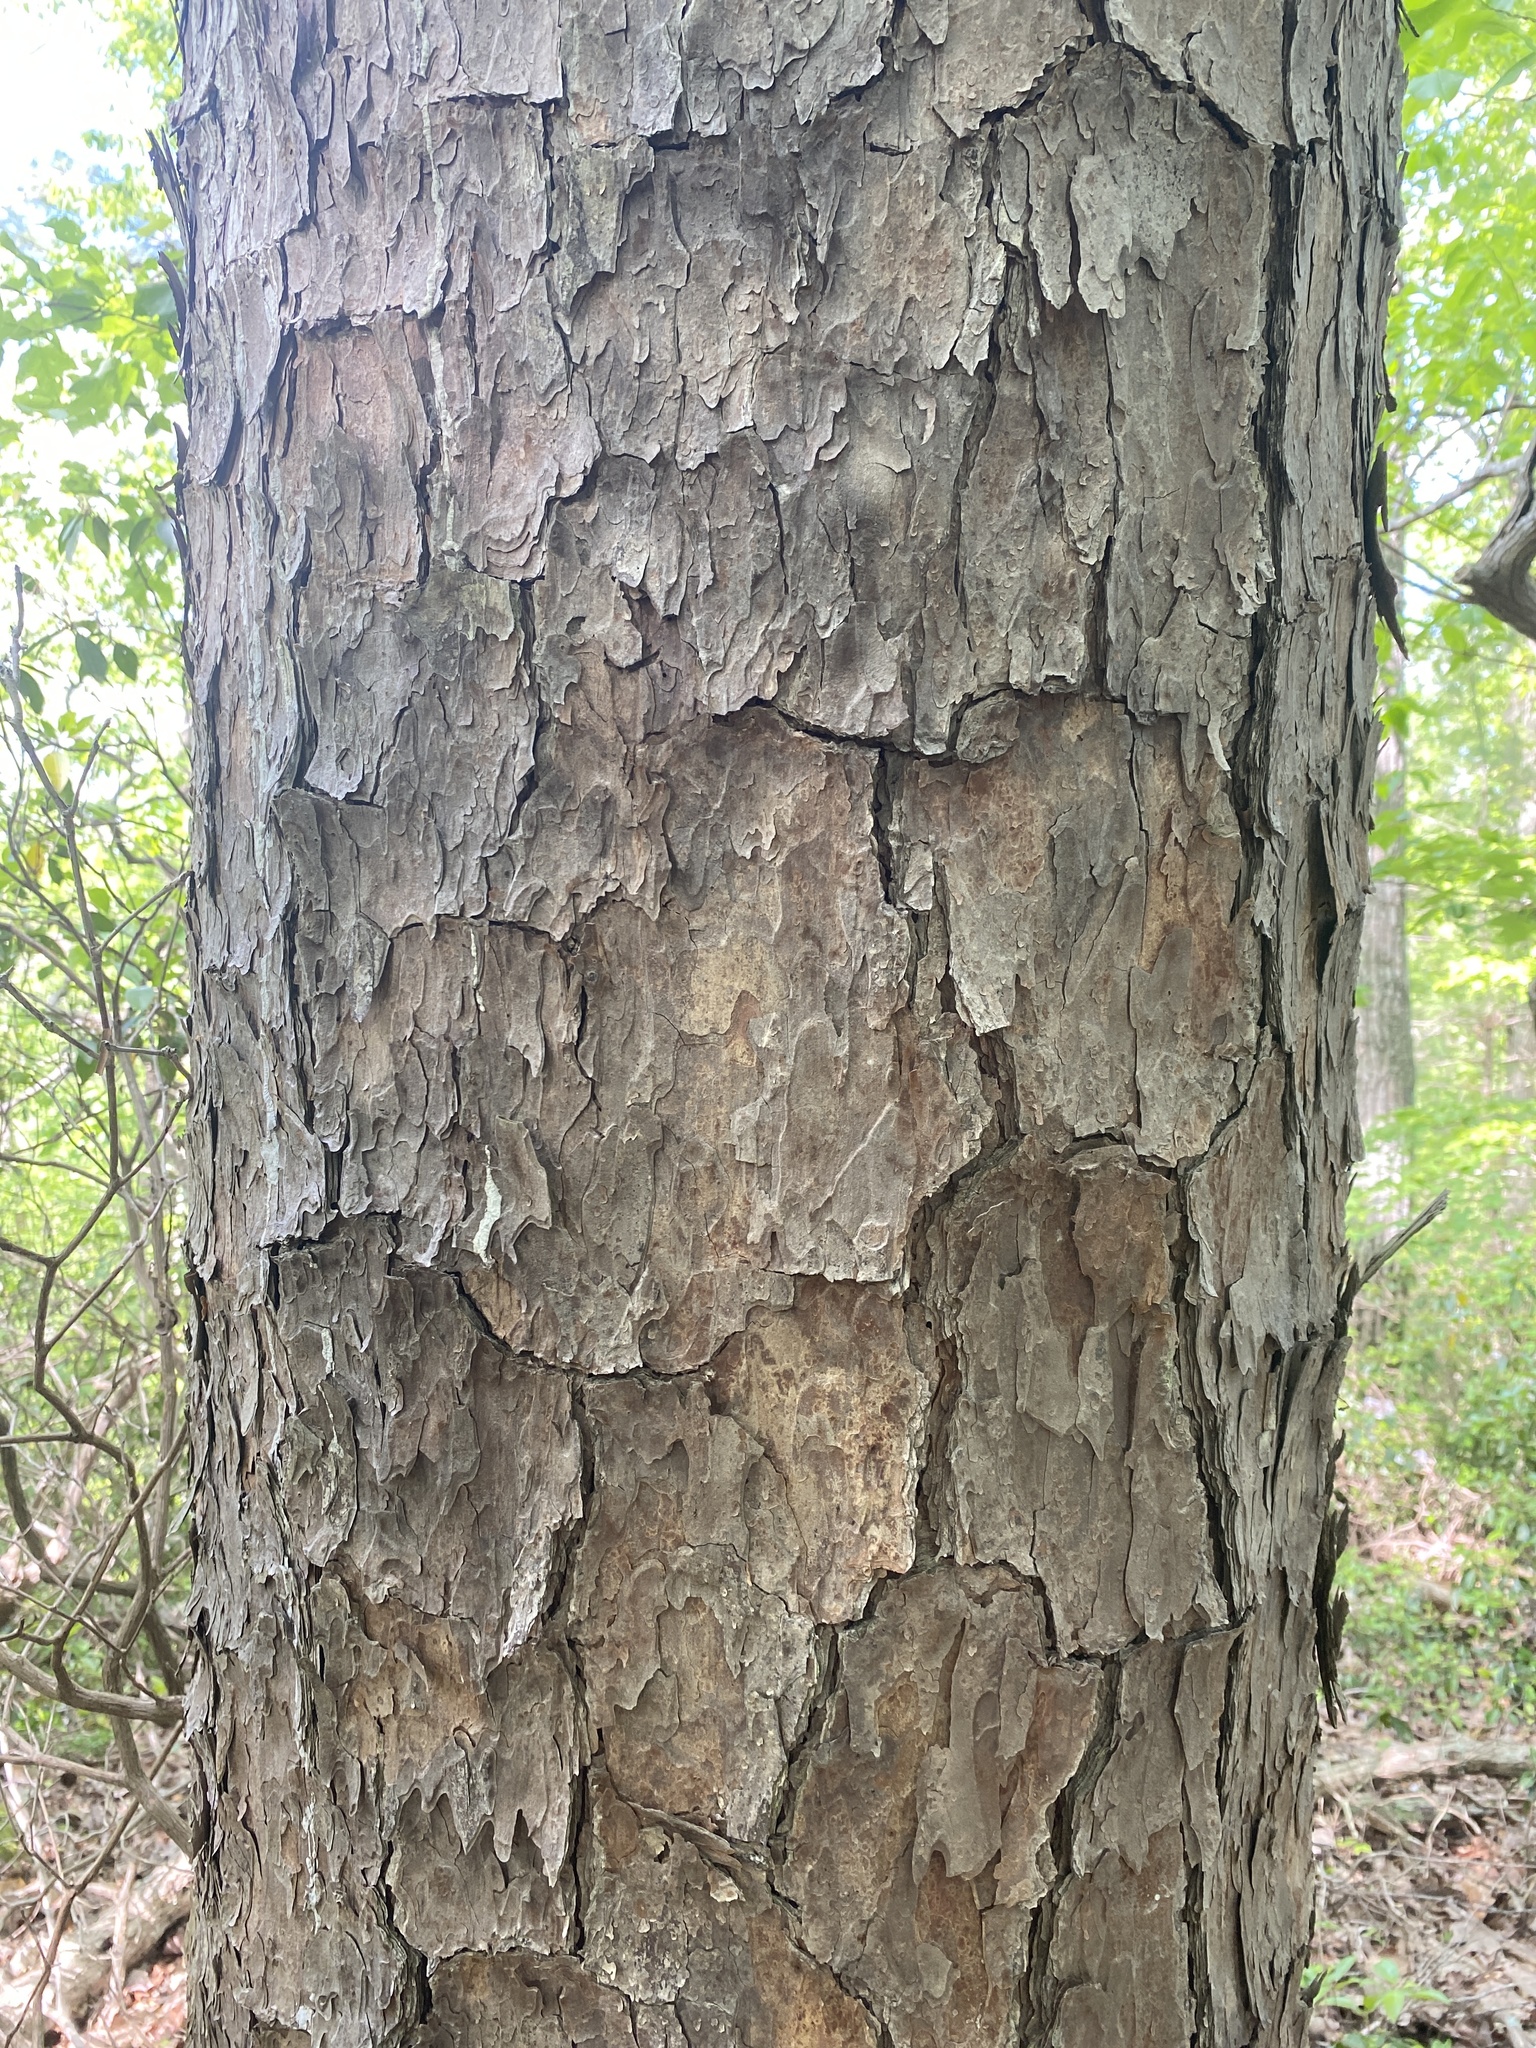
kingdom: Plantae
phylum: Tracheophyta
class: Pinopsida
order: Pinales
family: Pinaceae
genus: Pinus
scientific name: Pinus echinata
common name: Shortleaf pine
